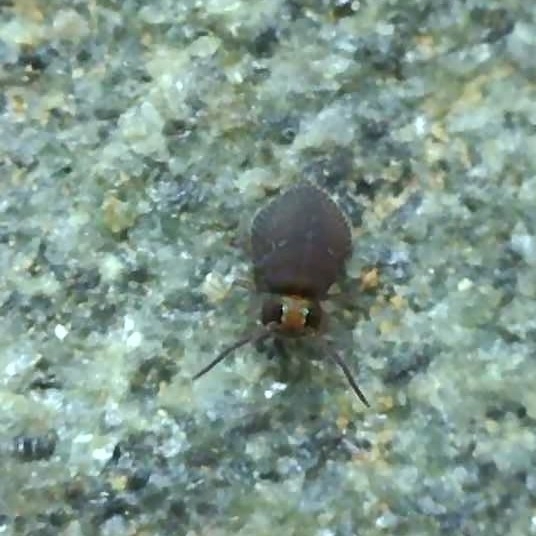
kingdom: Animalia
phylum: Arthropoda
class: Collembola
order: Symphypleona
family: Bourletiellidae
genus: Bourletiella
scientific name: Bourletiella hortensis
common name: Garden springtail
